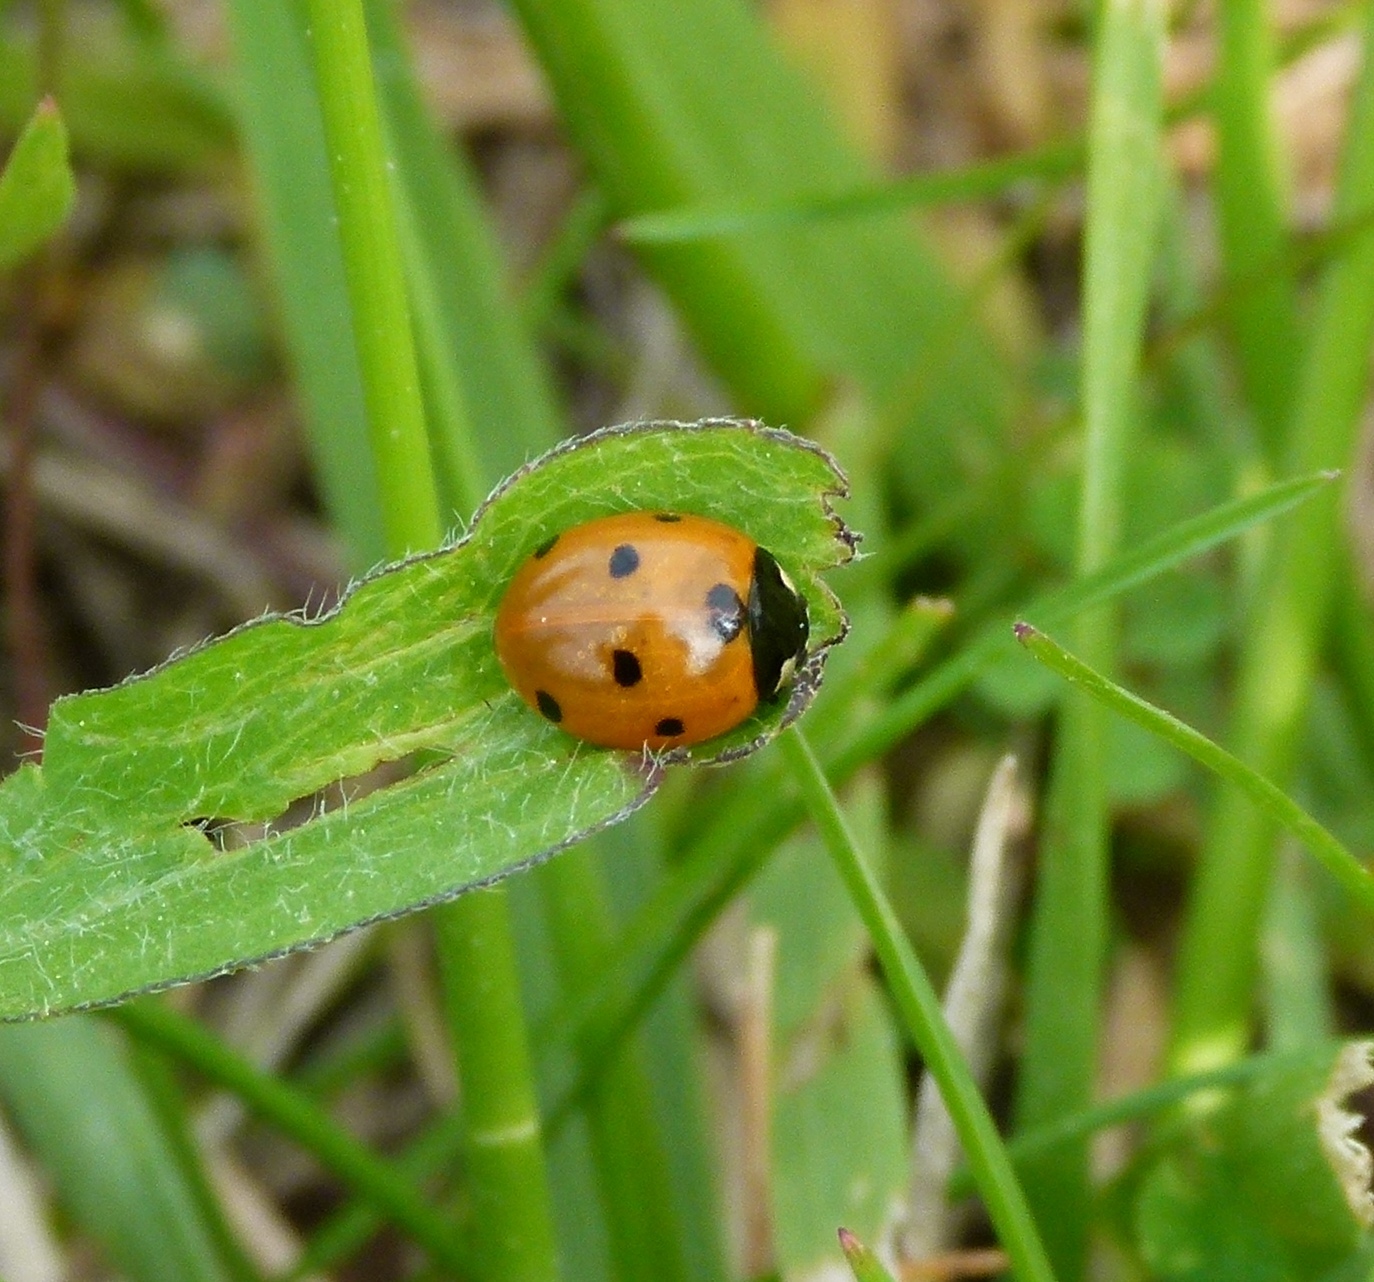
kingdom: Animalia
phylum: Arthropoda
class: Insecta
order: Coleoptera
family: Coccinellidae
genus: Coccinella
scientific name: Coccinella septempunctata
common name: Sevenspotted lady beetle
